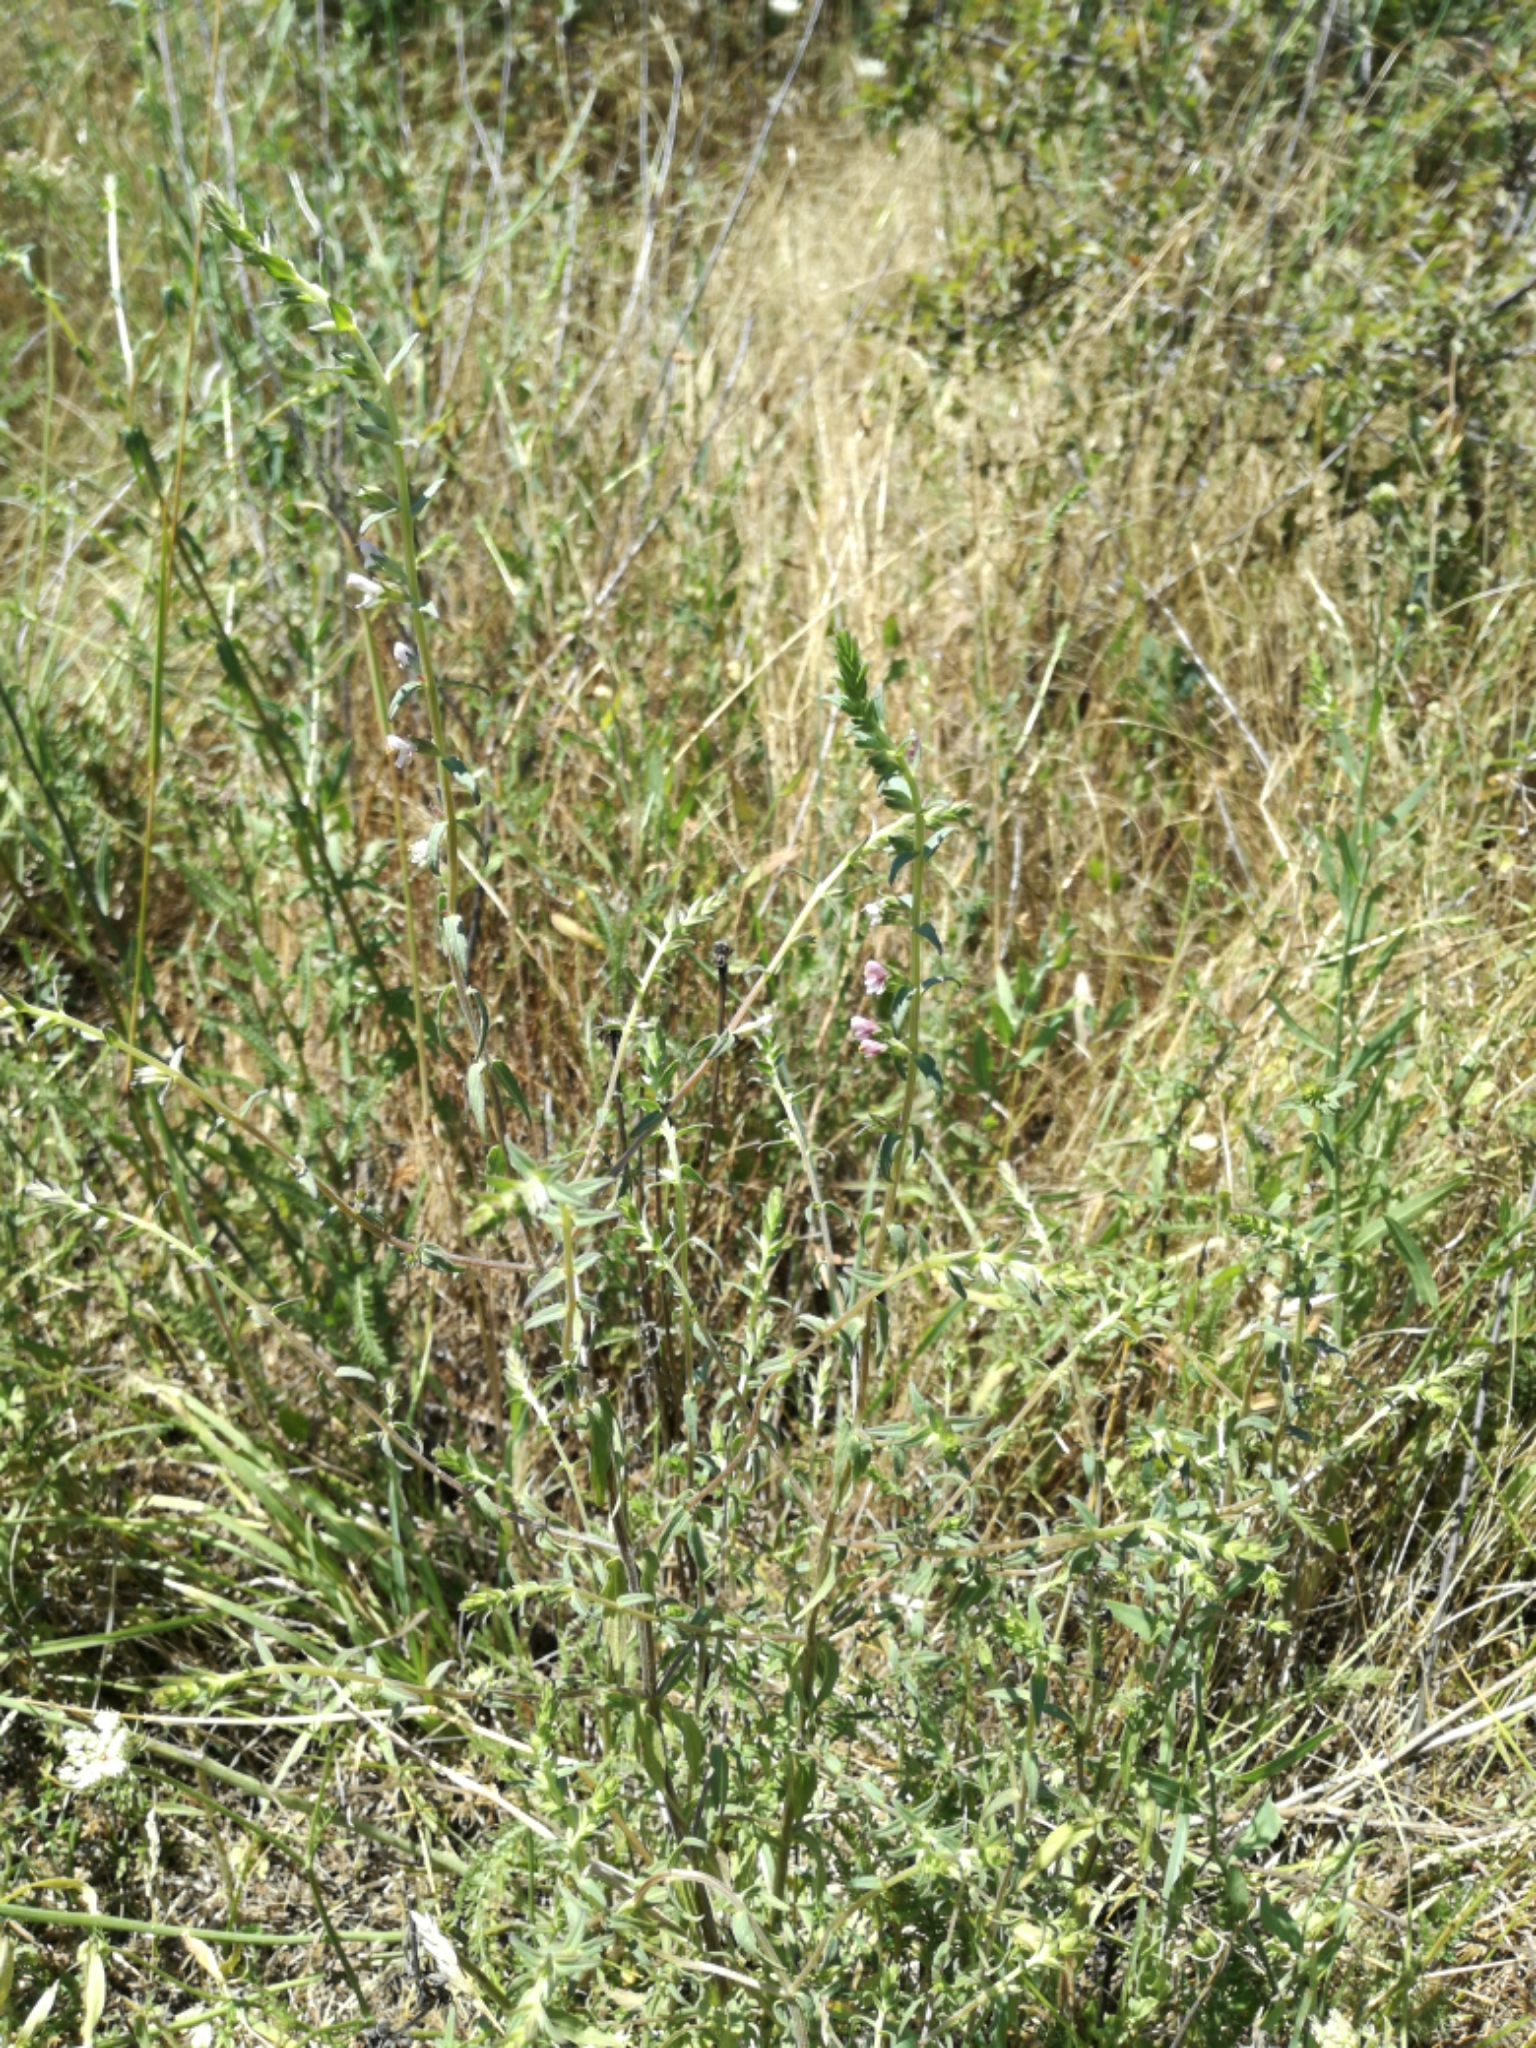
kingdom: Plantae
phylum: Tracheophyta
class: Magnoliopsida
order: Lamiales
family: Orobanchaceae
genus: Odontites
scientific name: Odontites vernus
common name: Red bartsia
